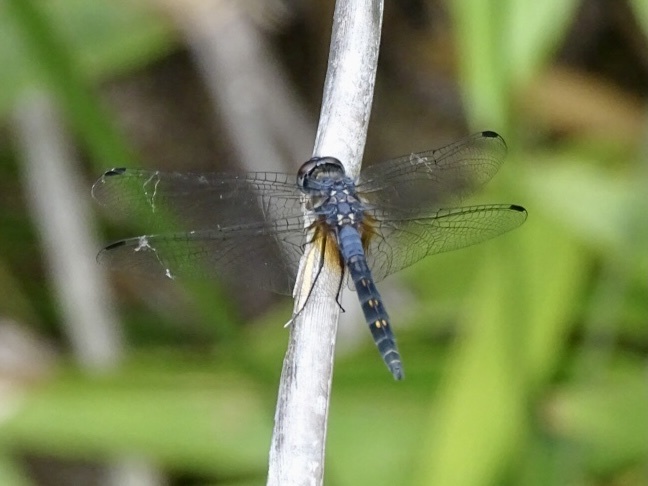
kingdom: Animalia
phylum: Arthropoda
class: Insecta
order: Odonata
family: Libellulidae
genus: Trithemis
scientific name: Trithemis festiva
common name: Indigo dropwing
